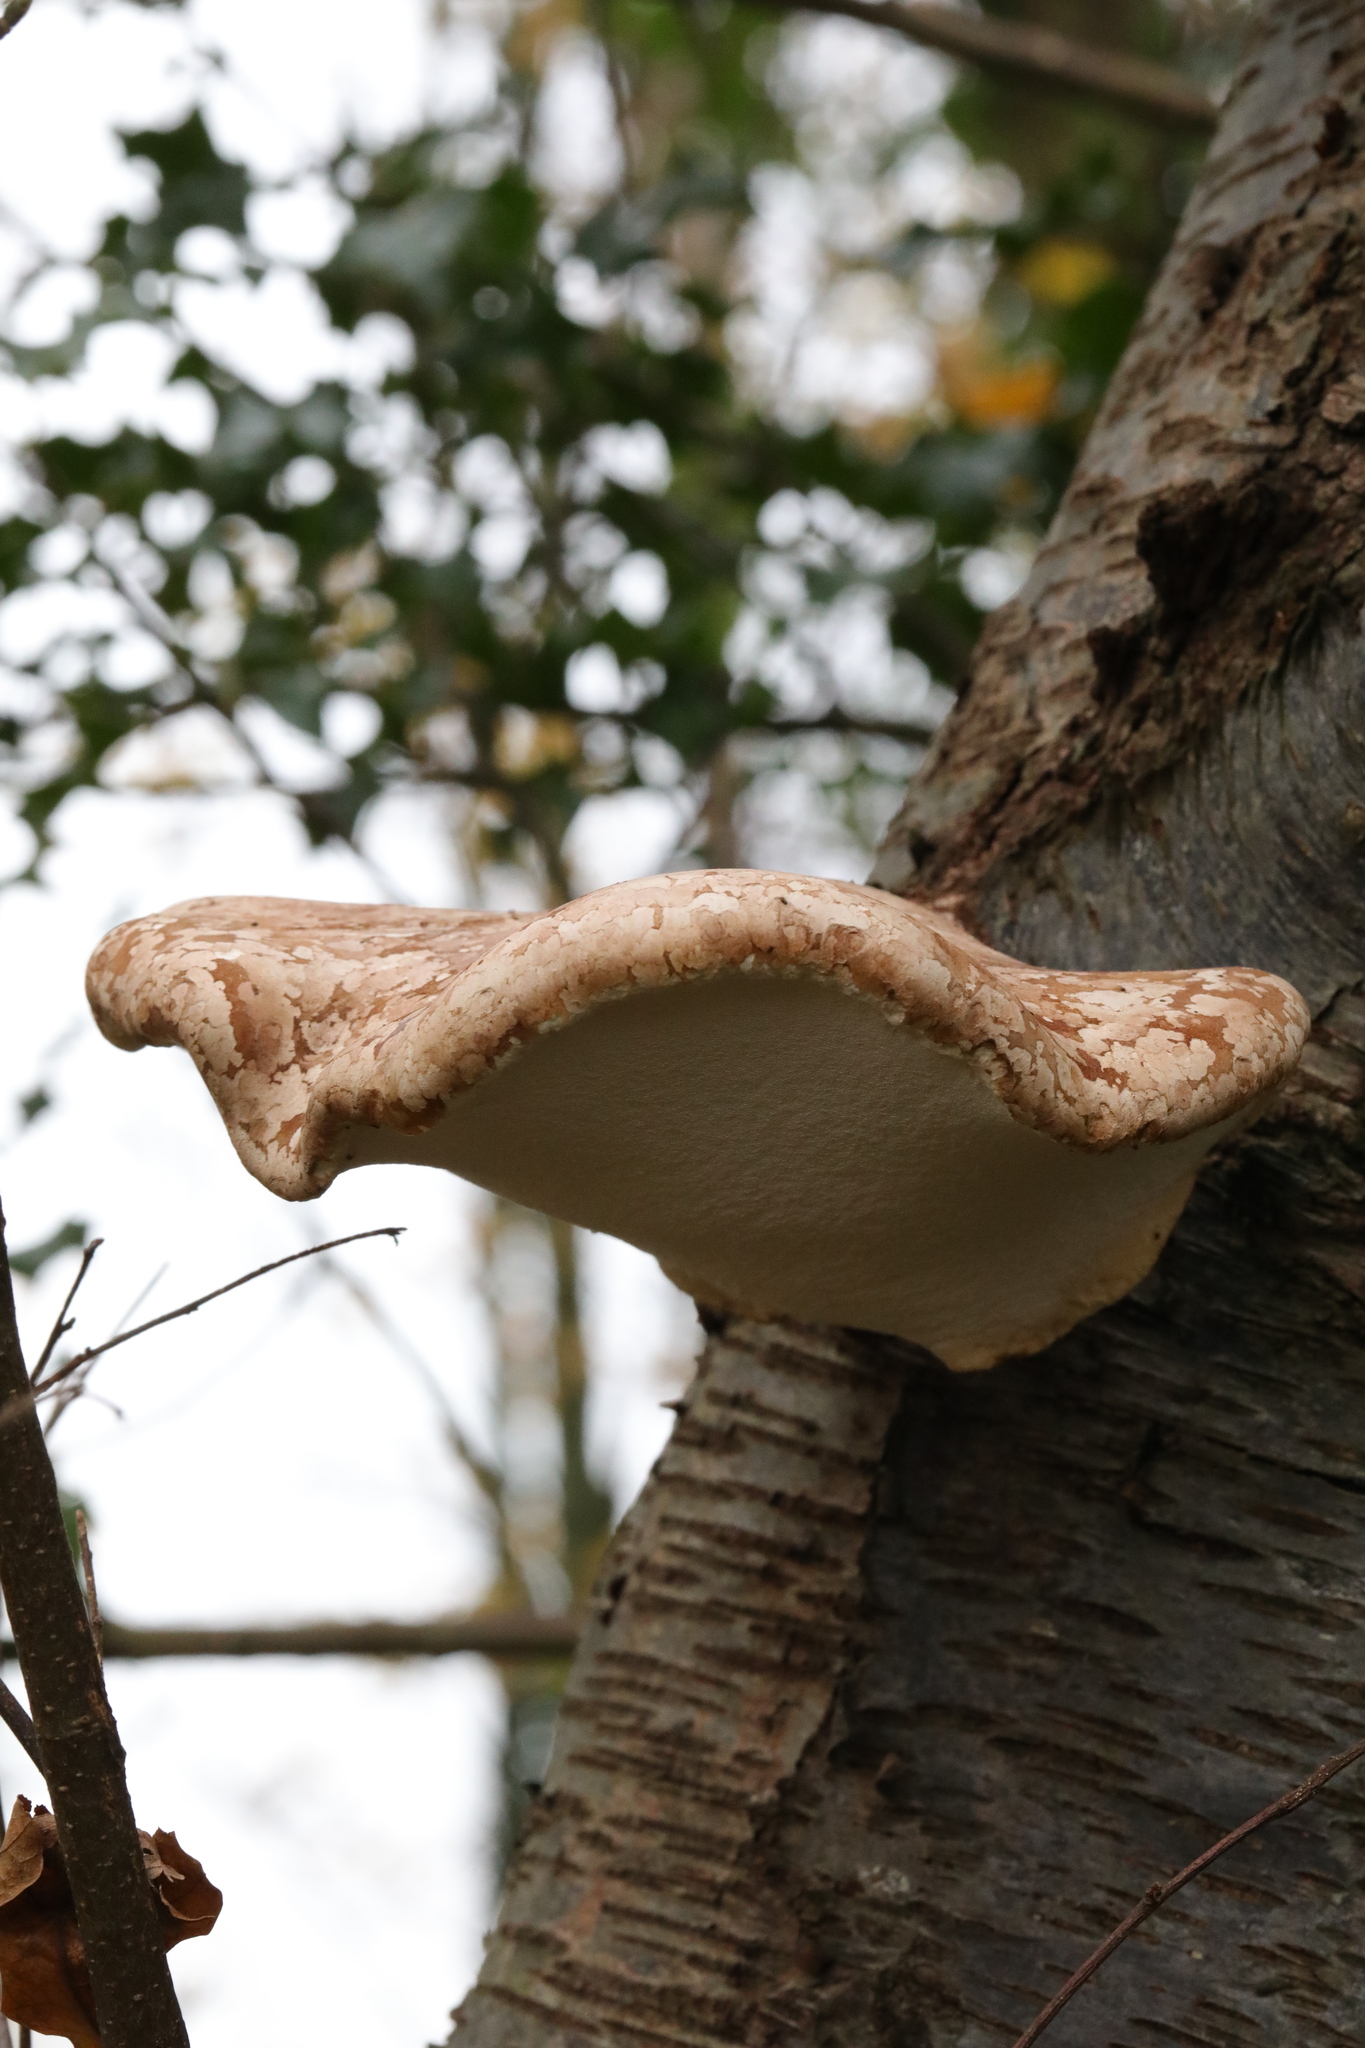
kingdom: Fungi
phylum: Basidiomycota
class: Agaricomycetes
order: Polyporales
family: Fomitopsidaceae
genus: Fomitopsis
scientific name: Fomitopsis betulina
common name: Birch polypore
